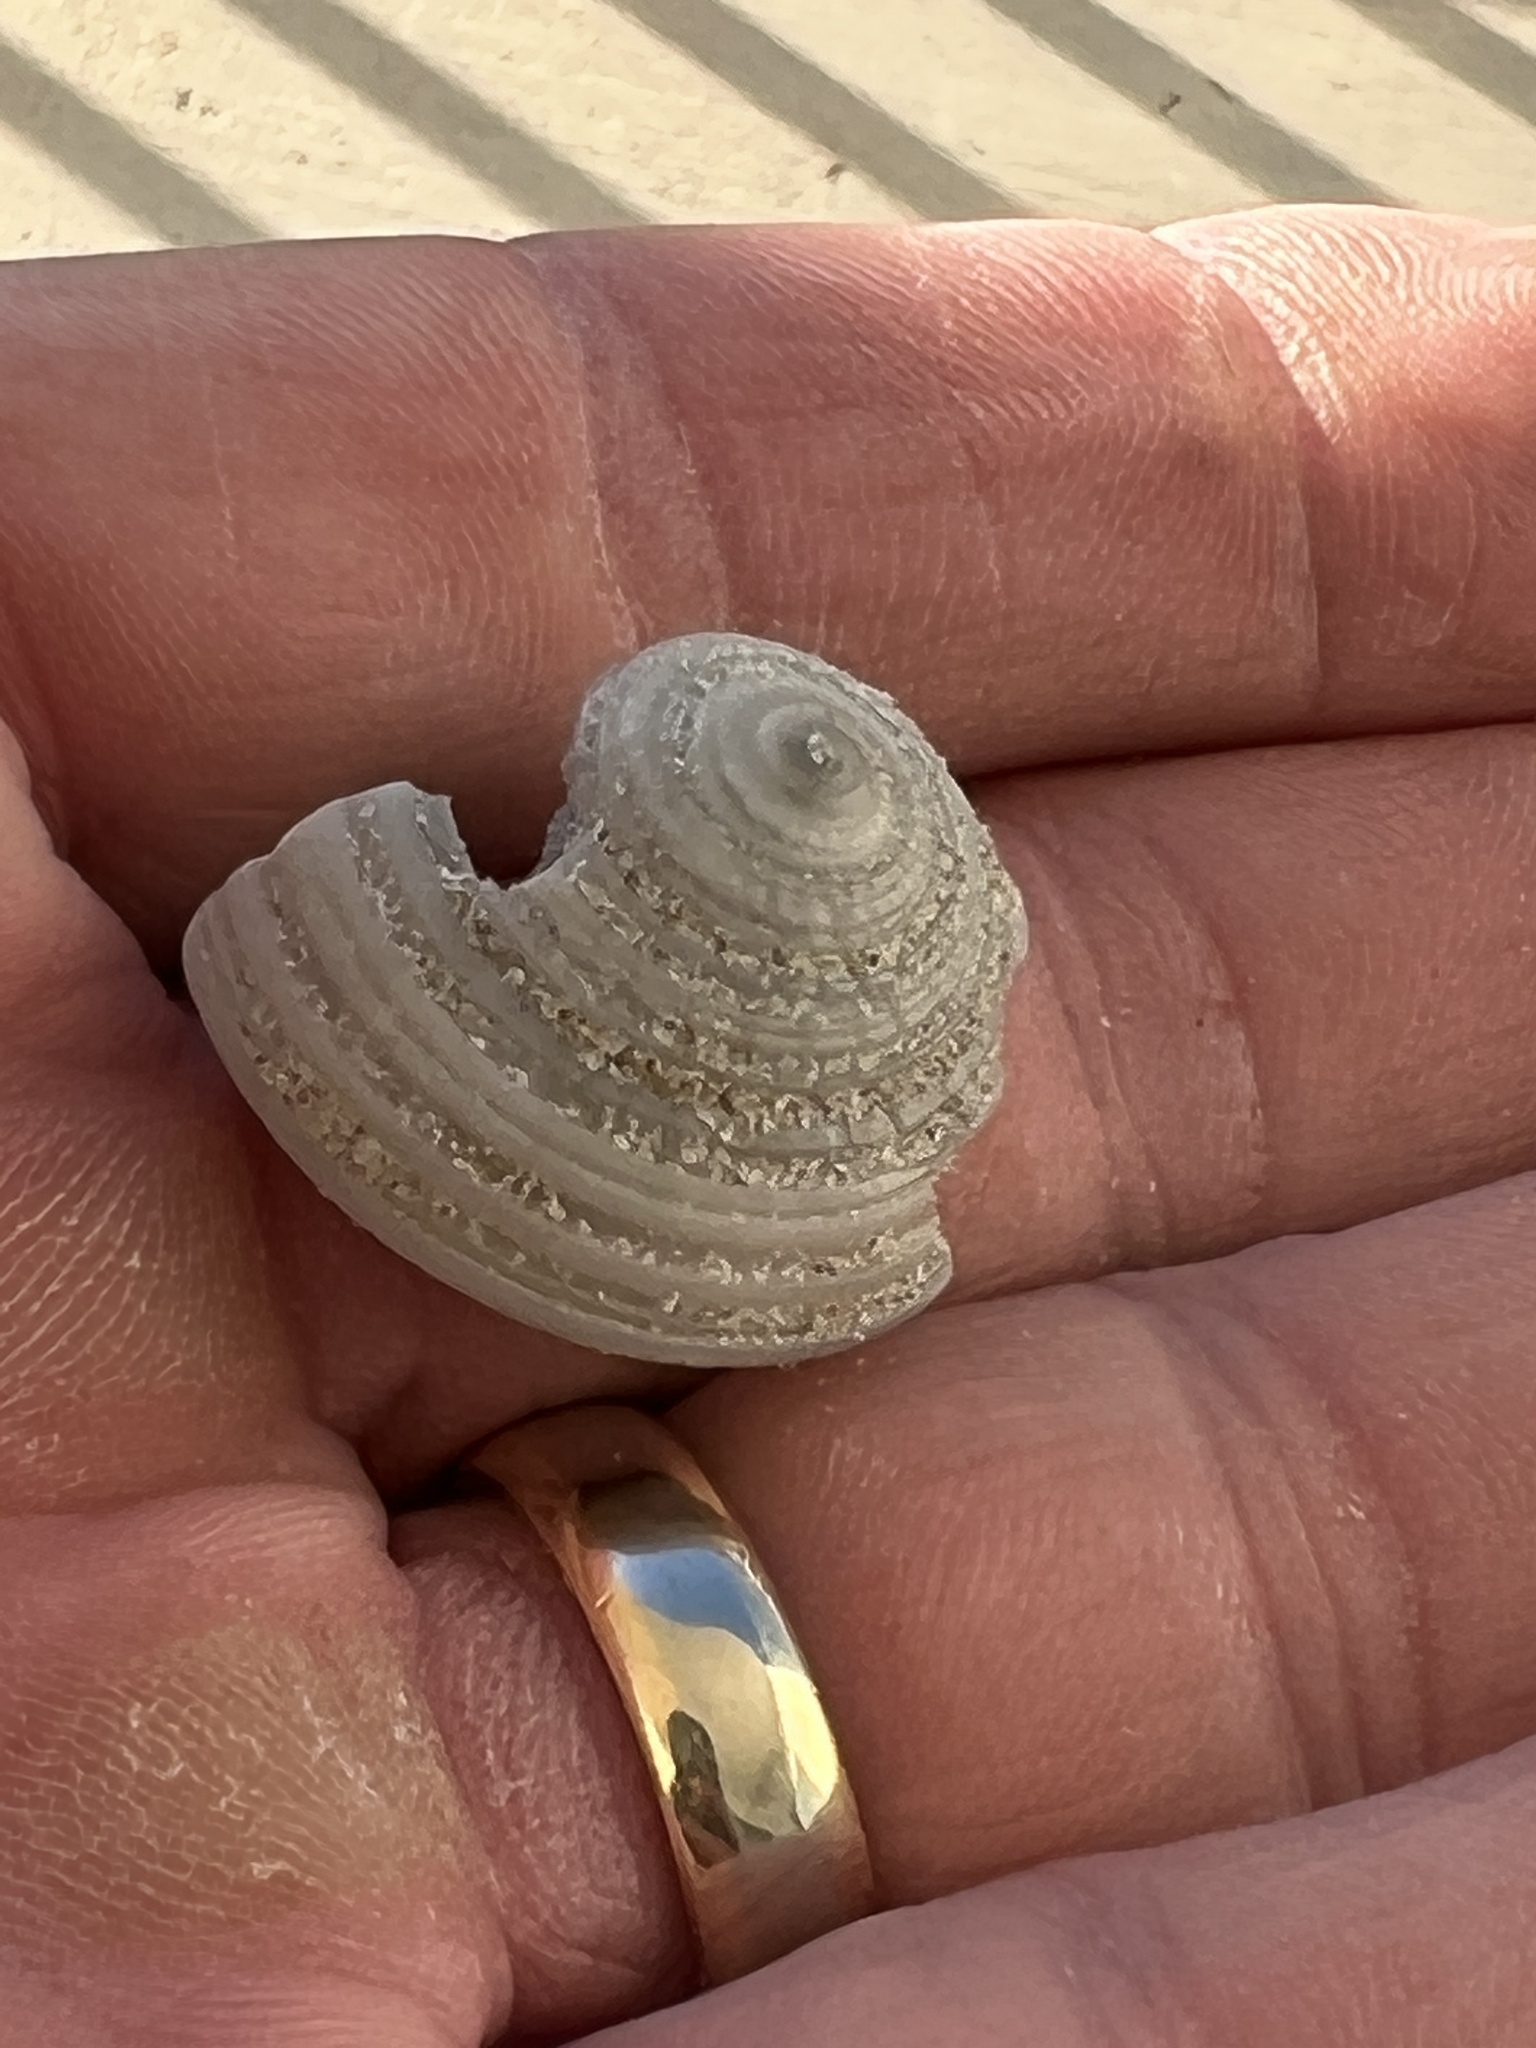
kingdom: Animalia
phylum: Mollusca
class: Gastropoda
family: Architectonicidae
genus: Architectonica
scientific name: Architectonica nobilis
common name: Common sundial
